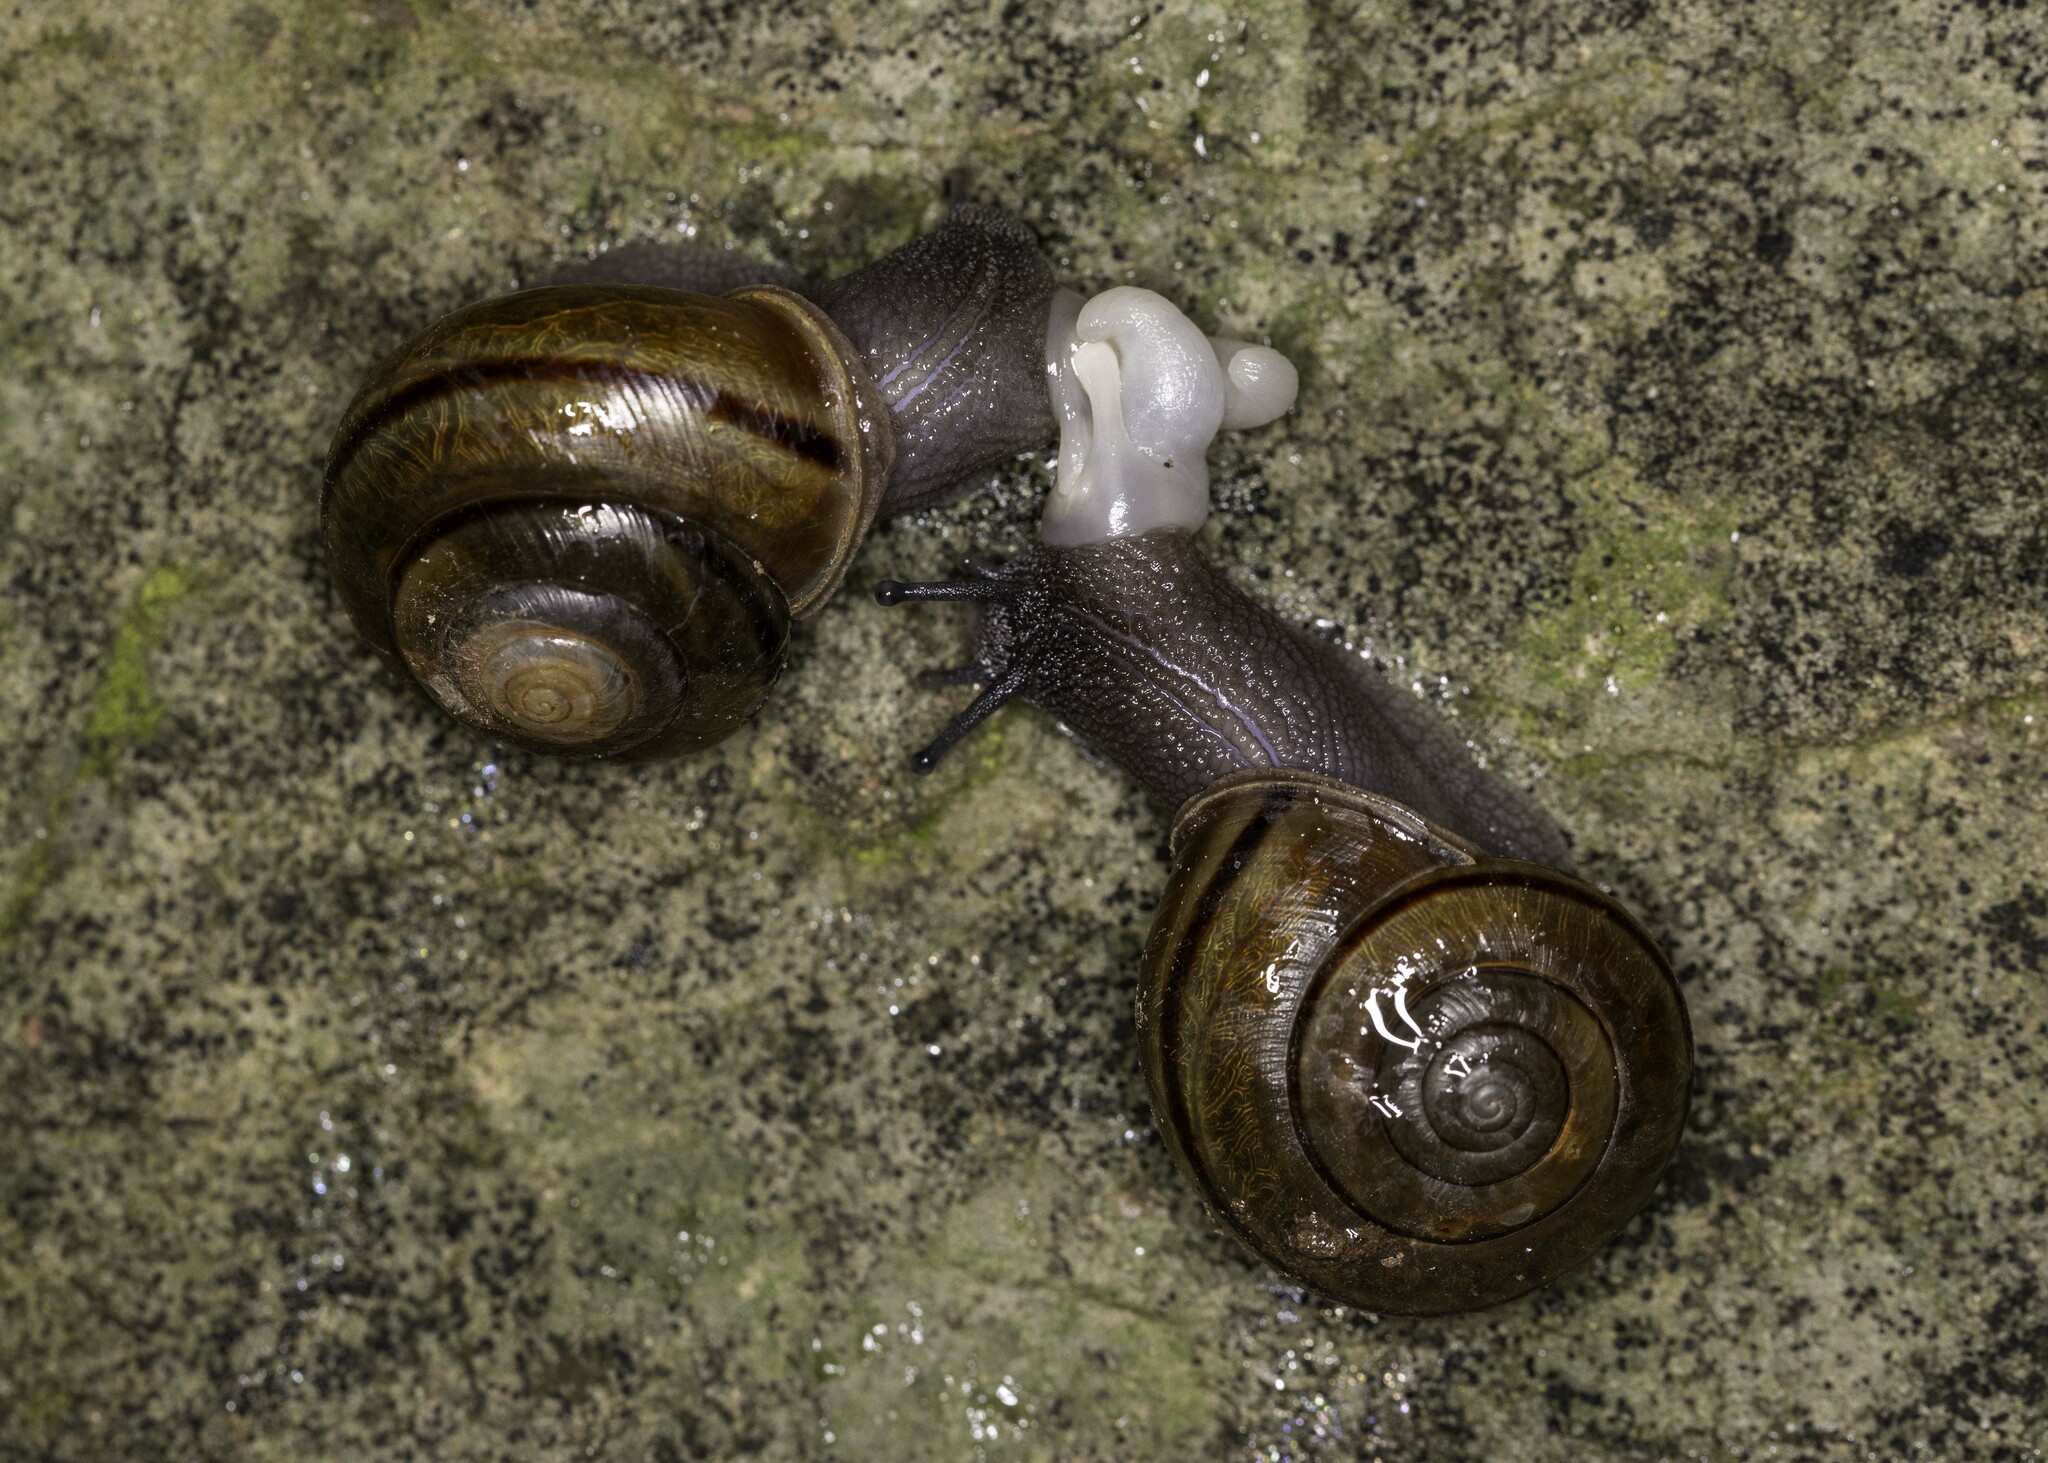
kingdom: Animalia
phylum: Mollusca
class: Gastropoda
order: Stylommatophora
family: Xanthonychidae
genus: Helminthoglypta
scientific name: Helminthoglypta traskii
